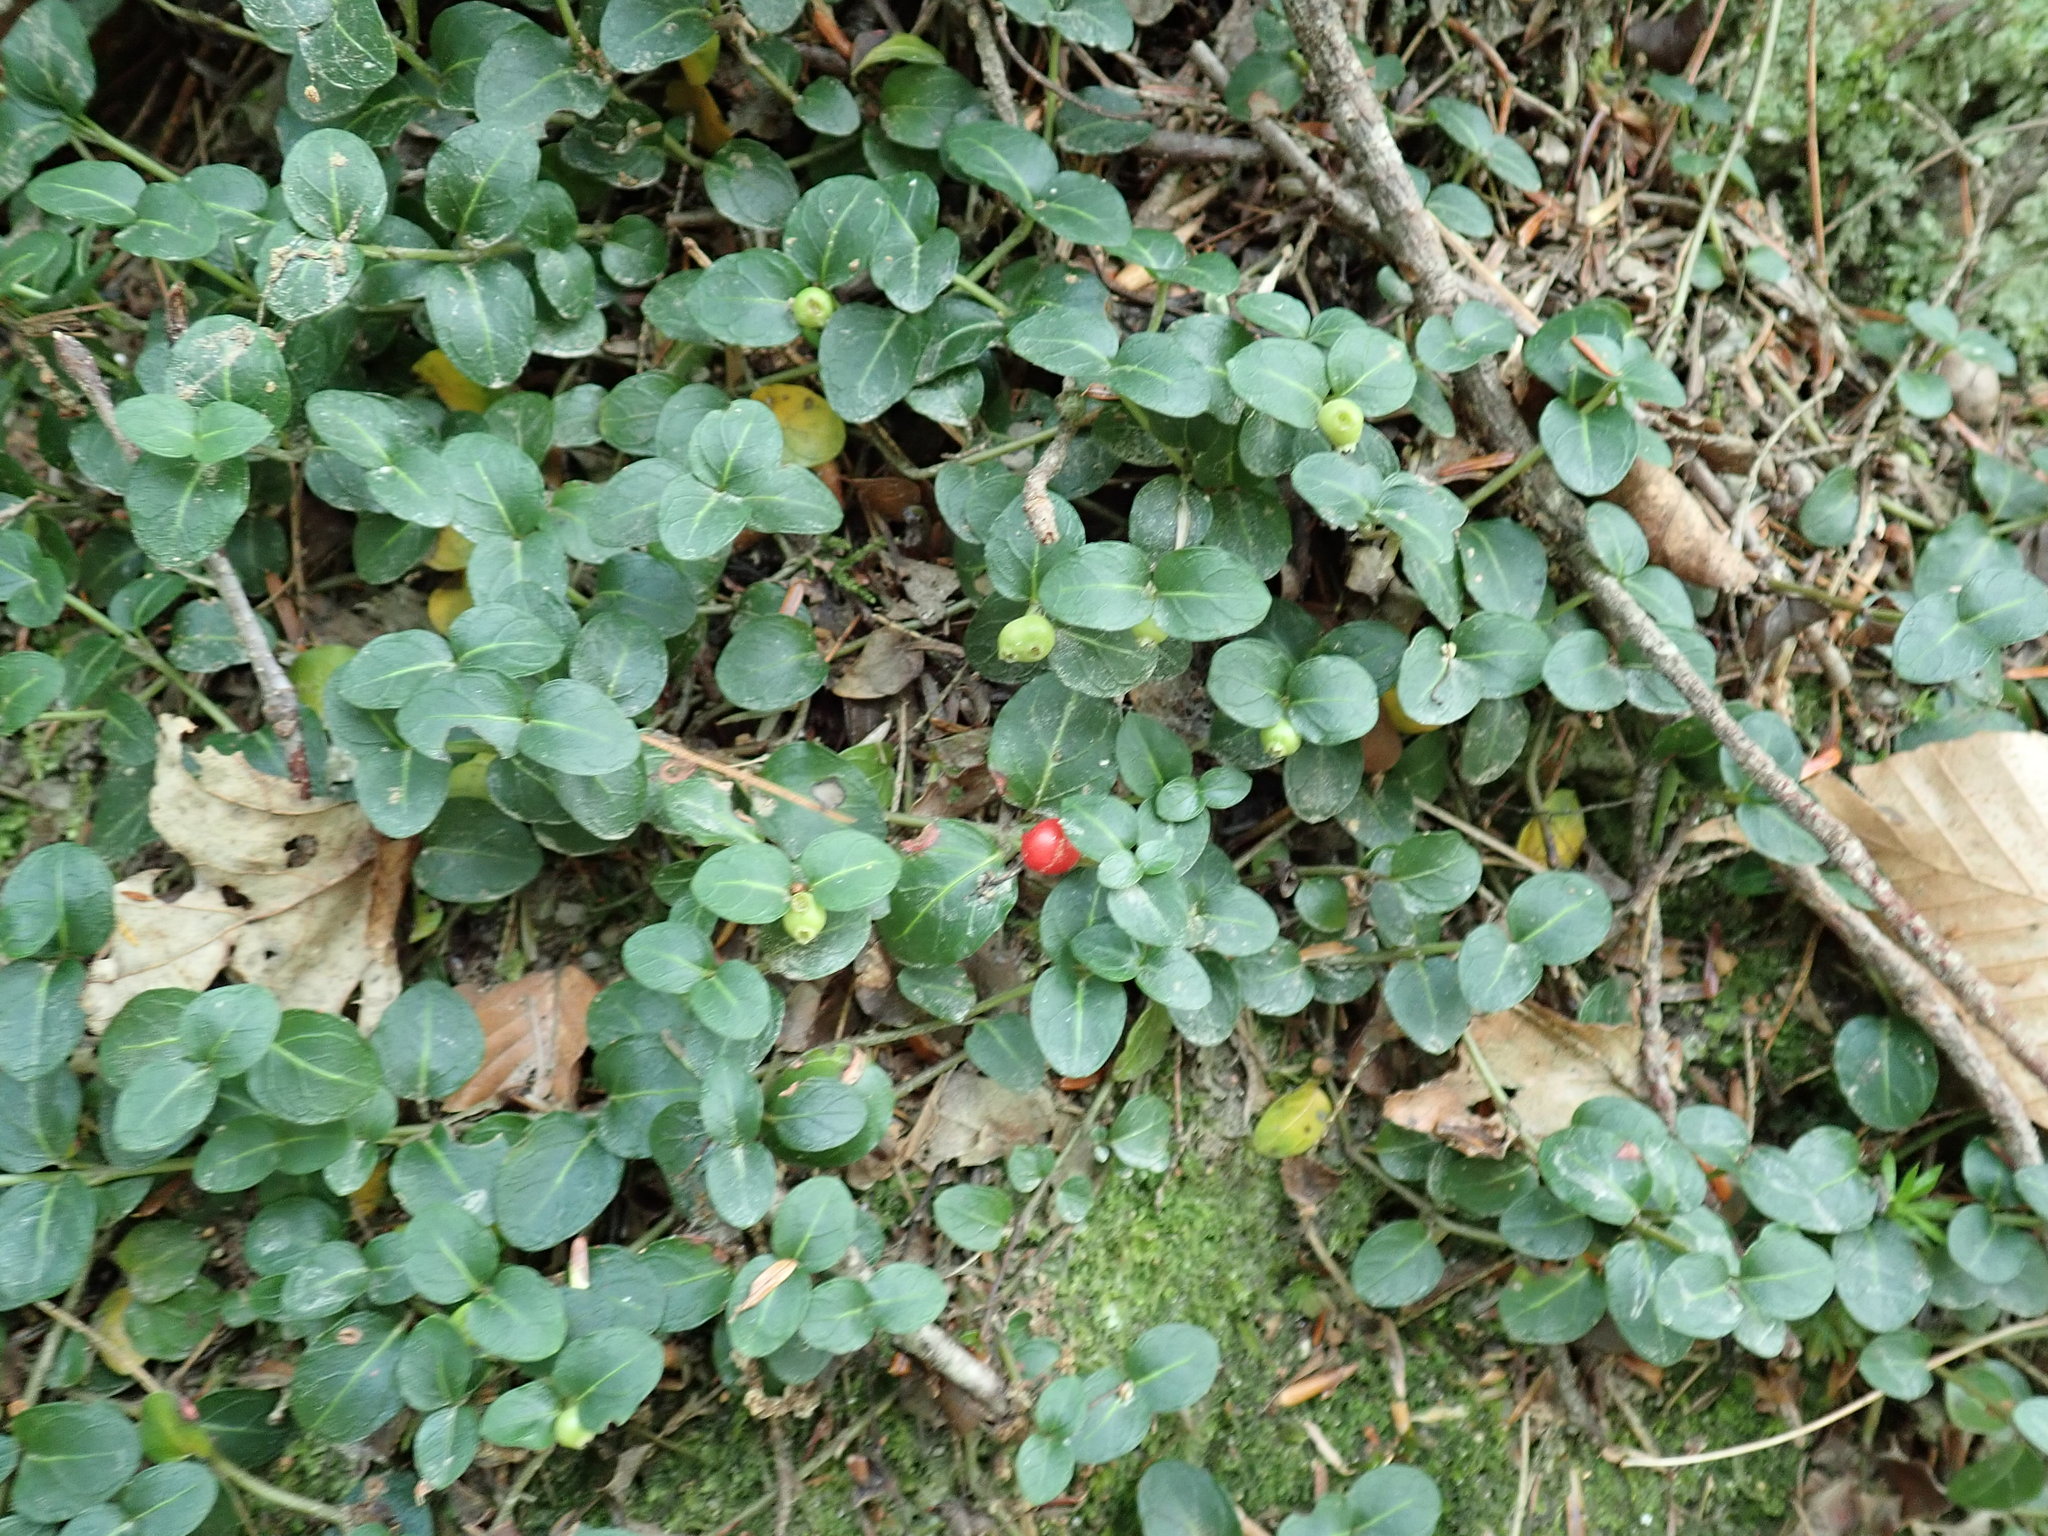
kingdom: Plantae
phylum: Tracheophyta
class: Magnoliopsida
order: Gentianales
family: Rubiaceae
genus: Mitchella
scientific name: Mitchella repens
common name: Partridge-berry
